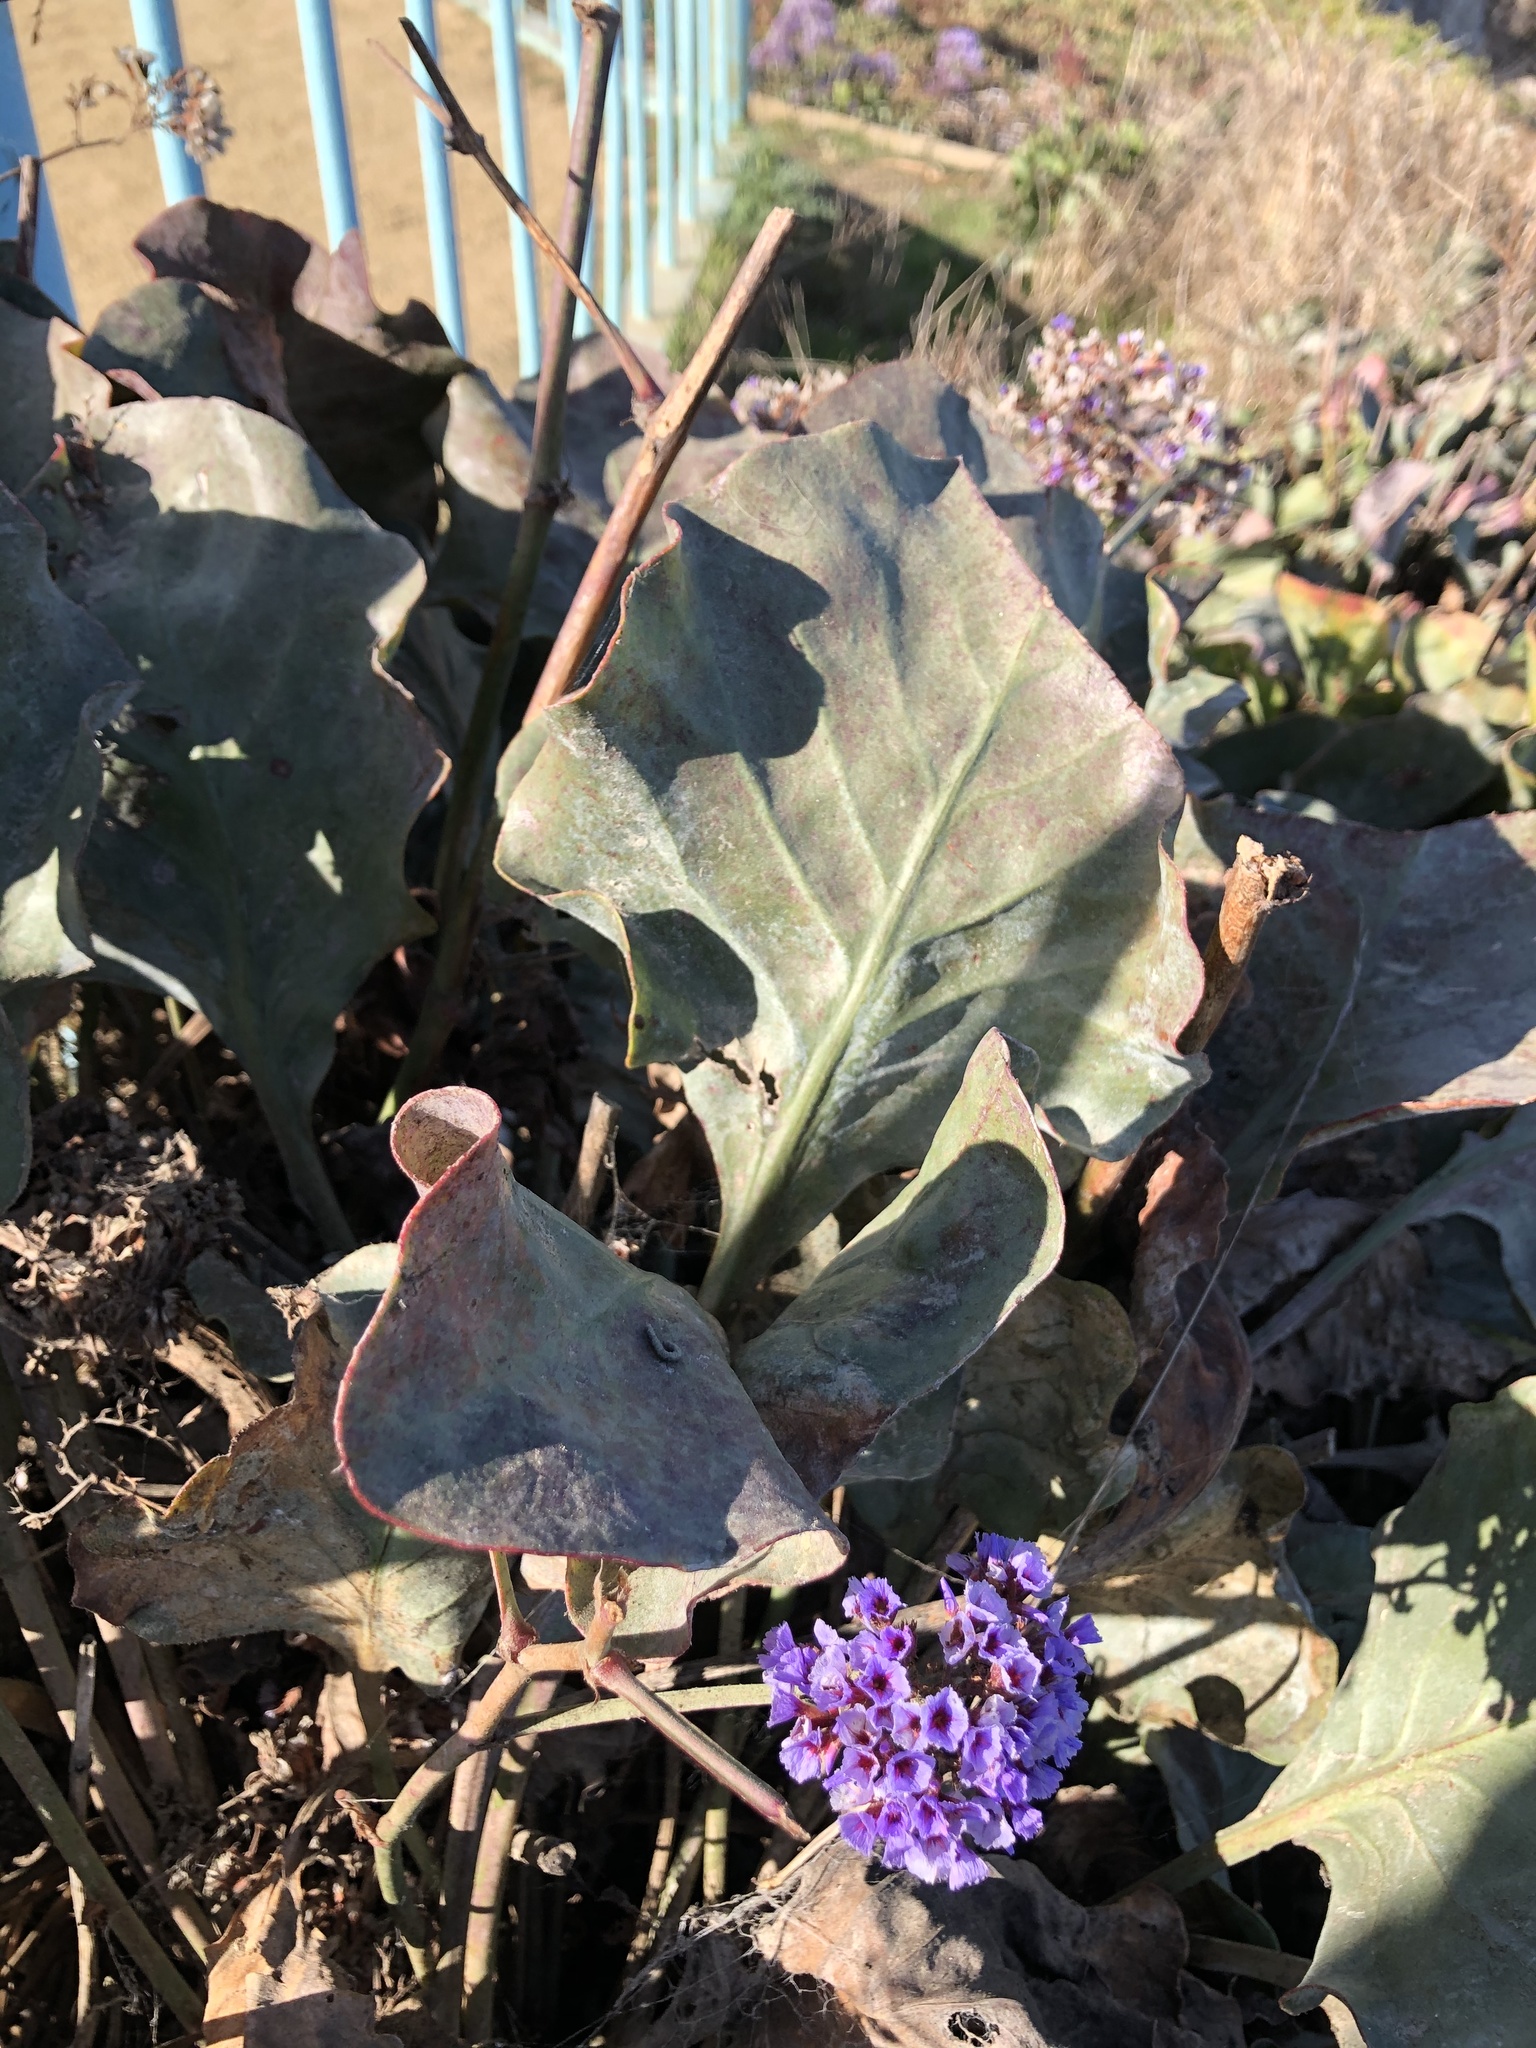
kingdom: Plantae
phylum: Tracheophyta
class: Magnoliopsida
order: Caryophyllales
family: Plumbaginaceae
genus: Limonium
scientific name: Limonium perezii
